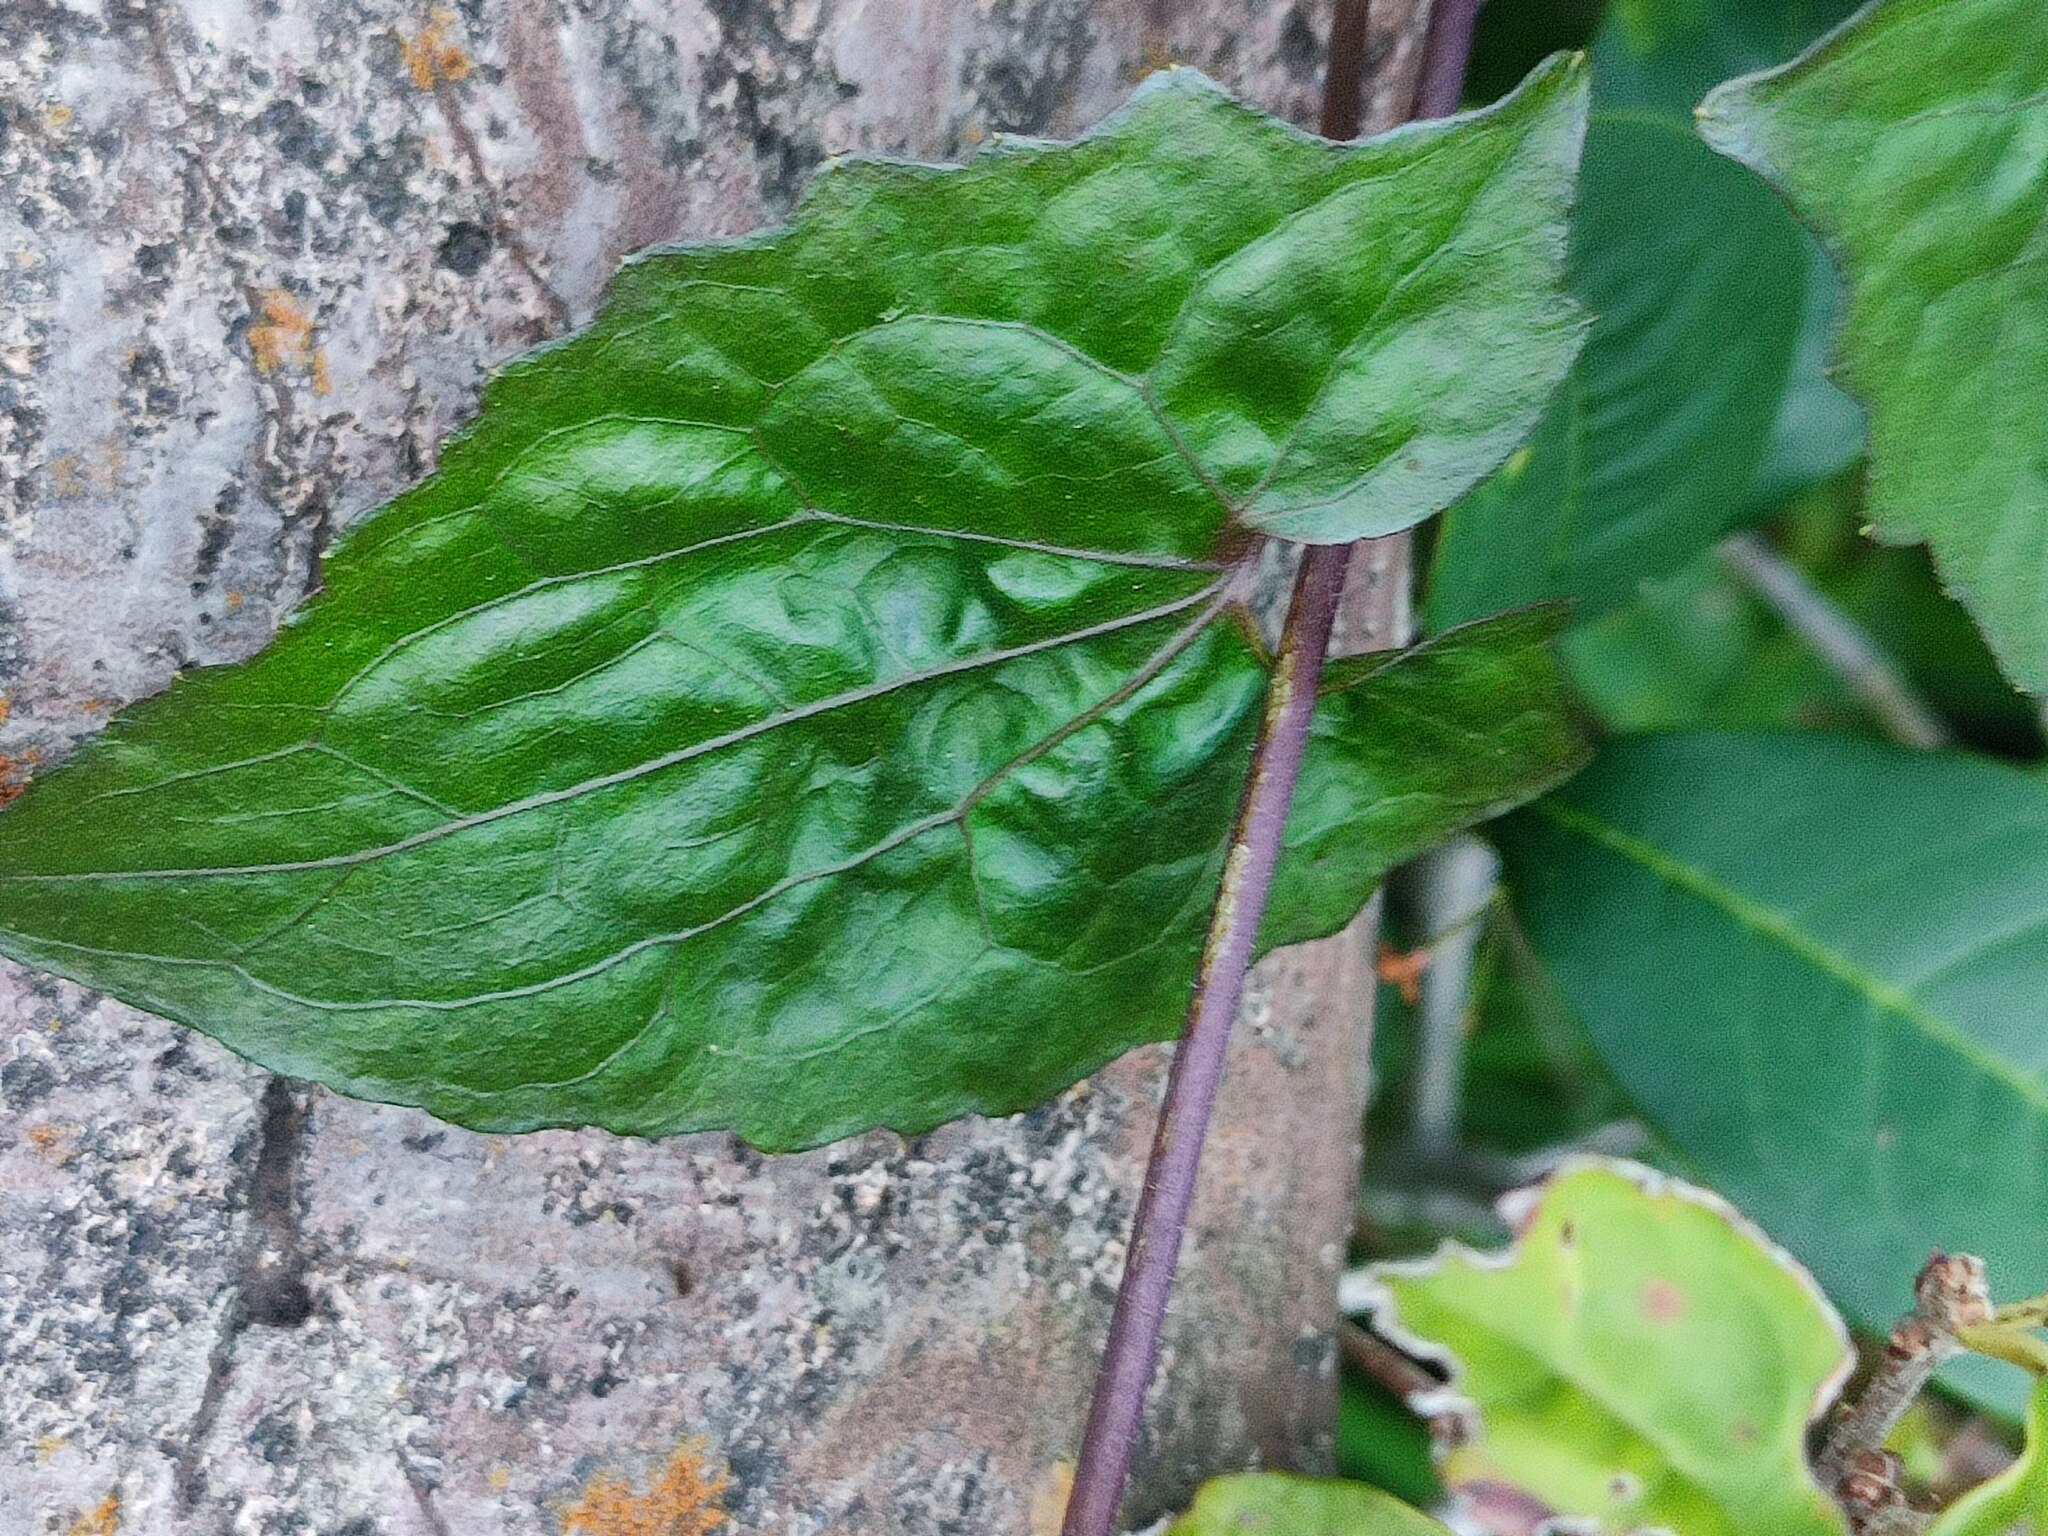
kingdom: Plantae
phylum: Tracheophyta
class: Magnoliopsida
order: Asterales
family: Asteraceae
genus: Mikania
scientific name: Mikania micrantha
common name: Mile-a-minute
